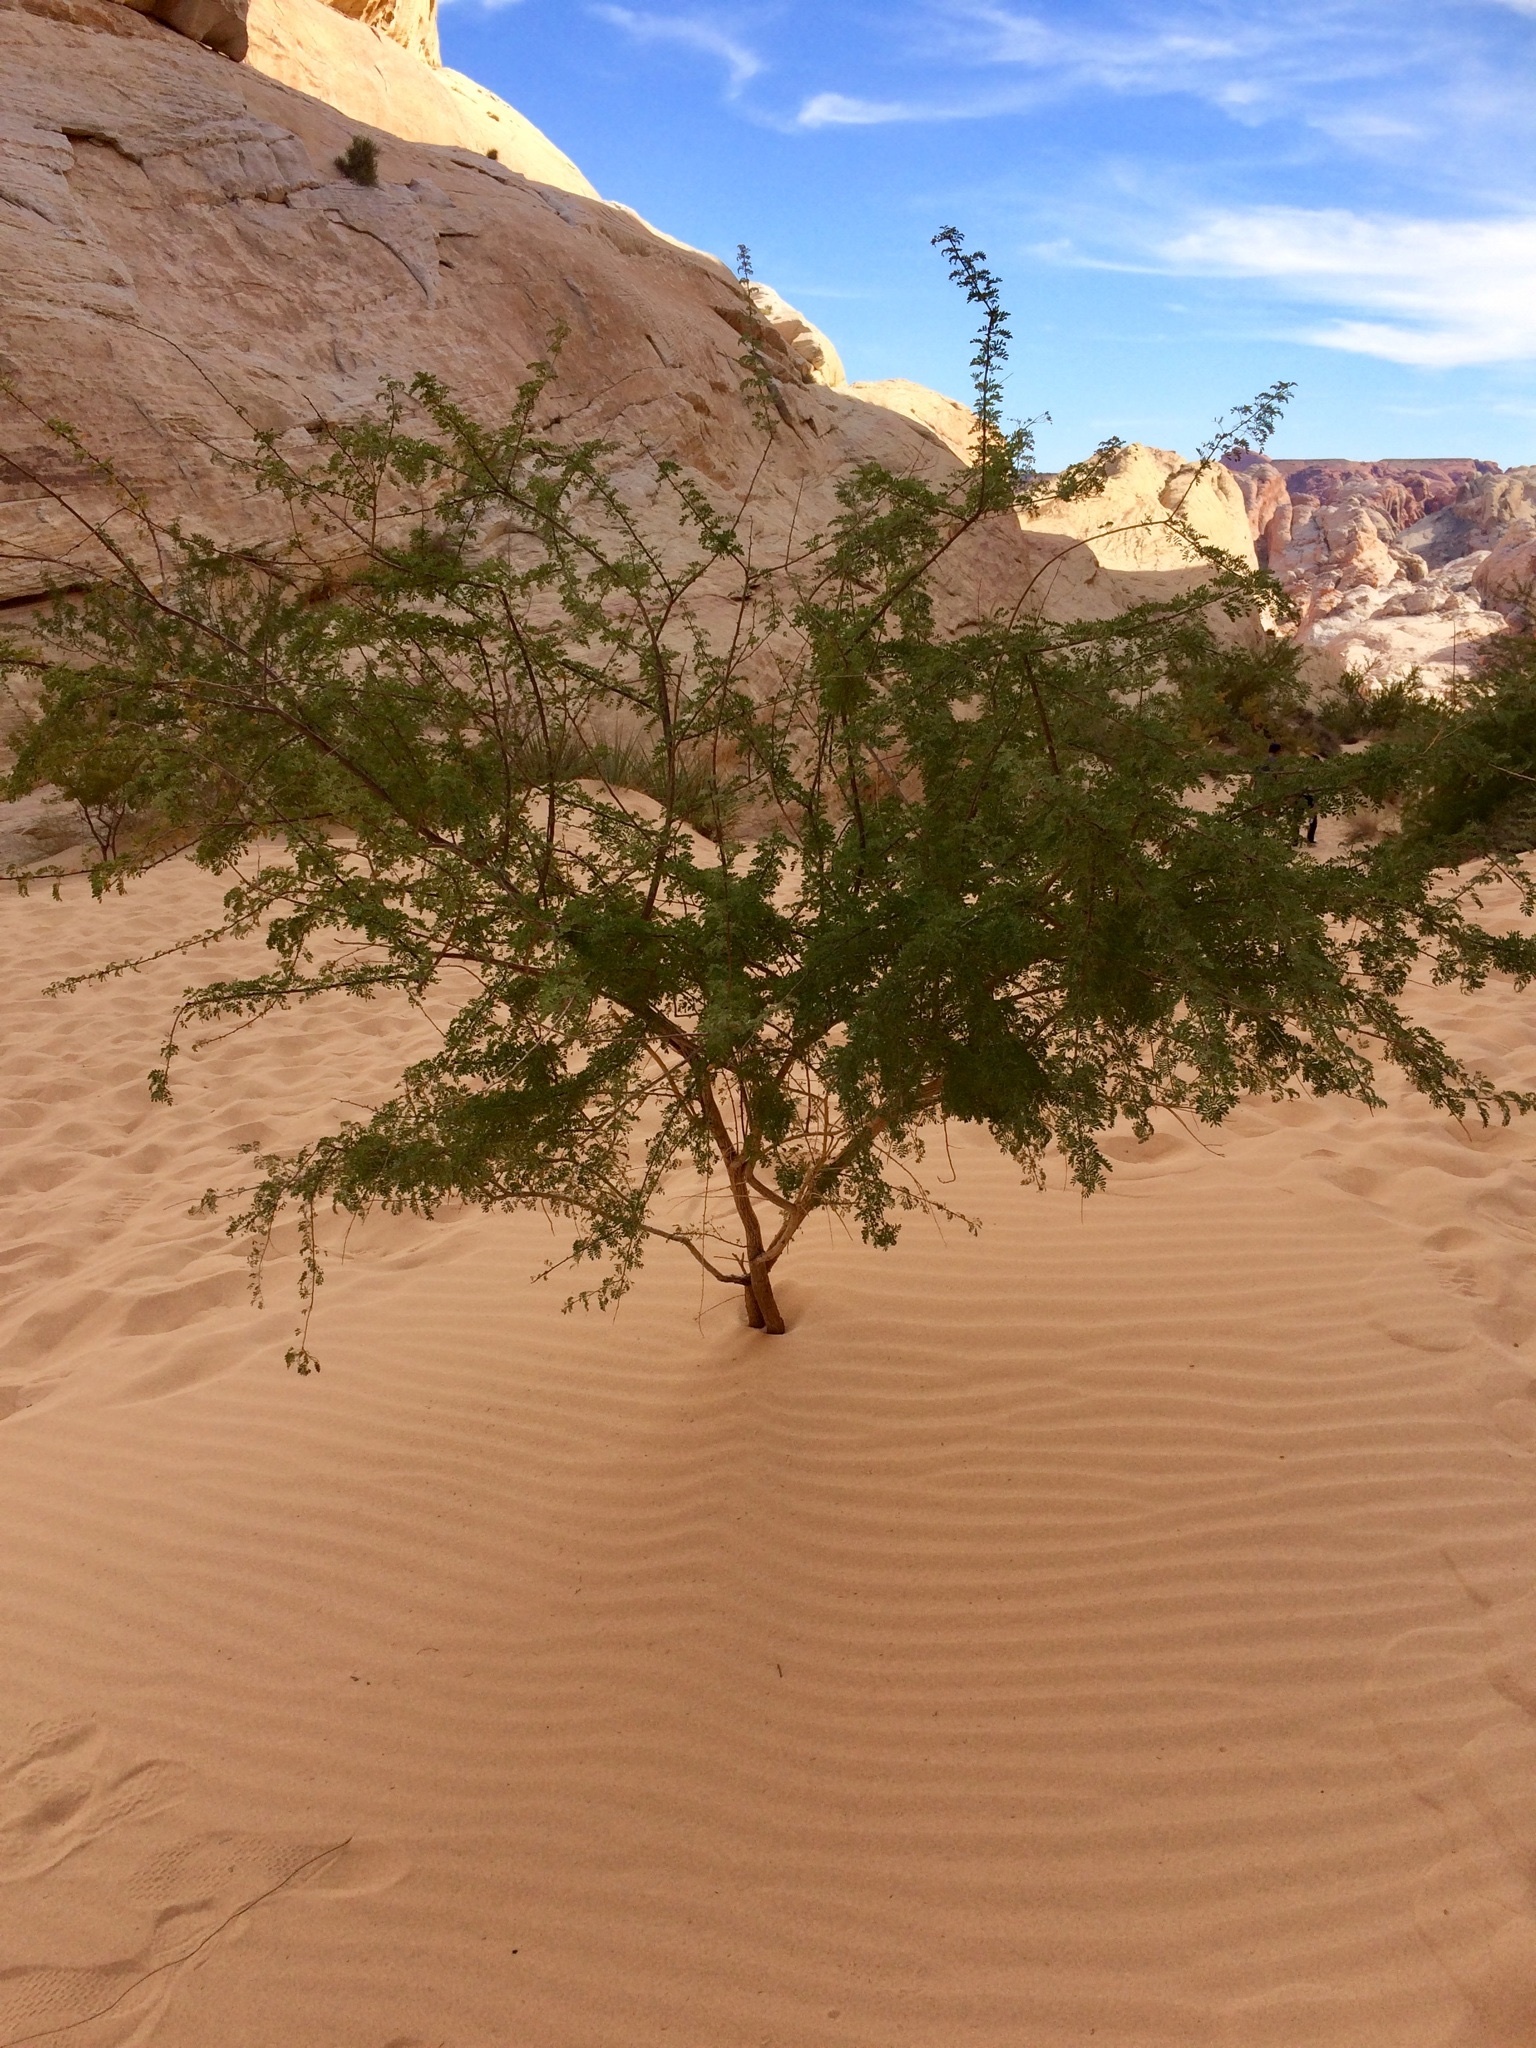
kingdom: Plantae
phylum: Tracheophyta
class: Magnoliopsida
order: Fabales
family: Fabaceae
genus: Senegalia
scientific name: Senegalia greggii
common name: Texas-mimosa
